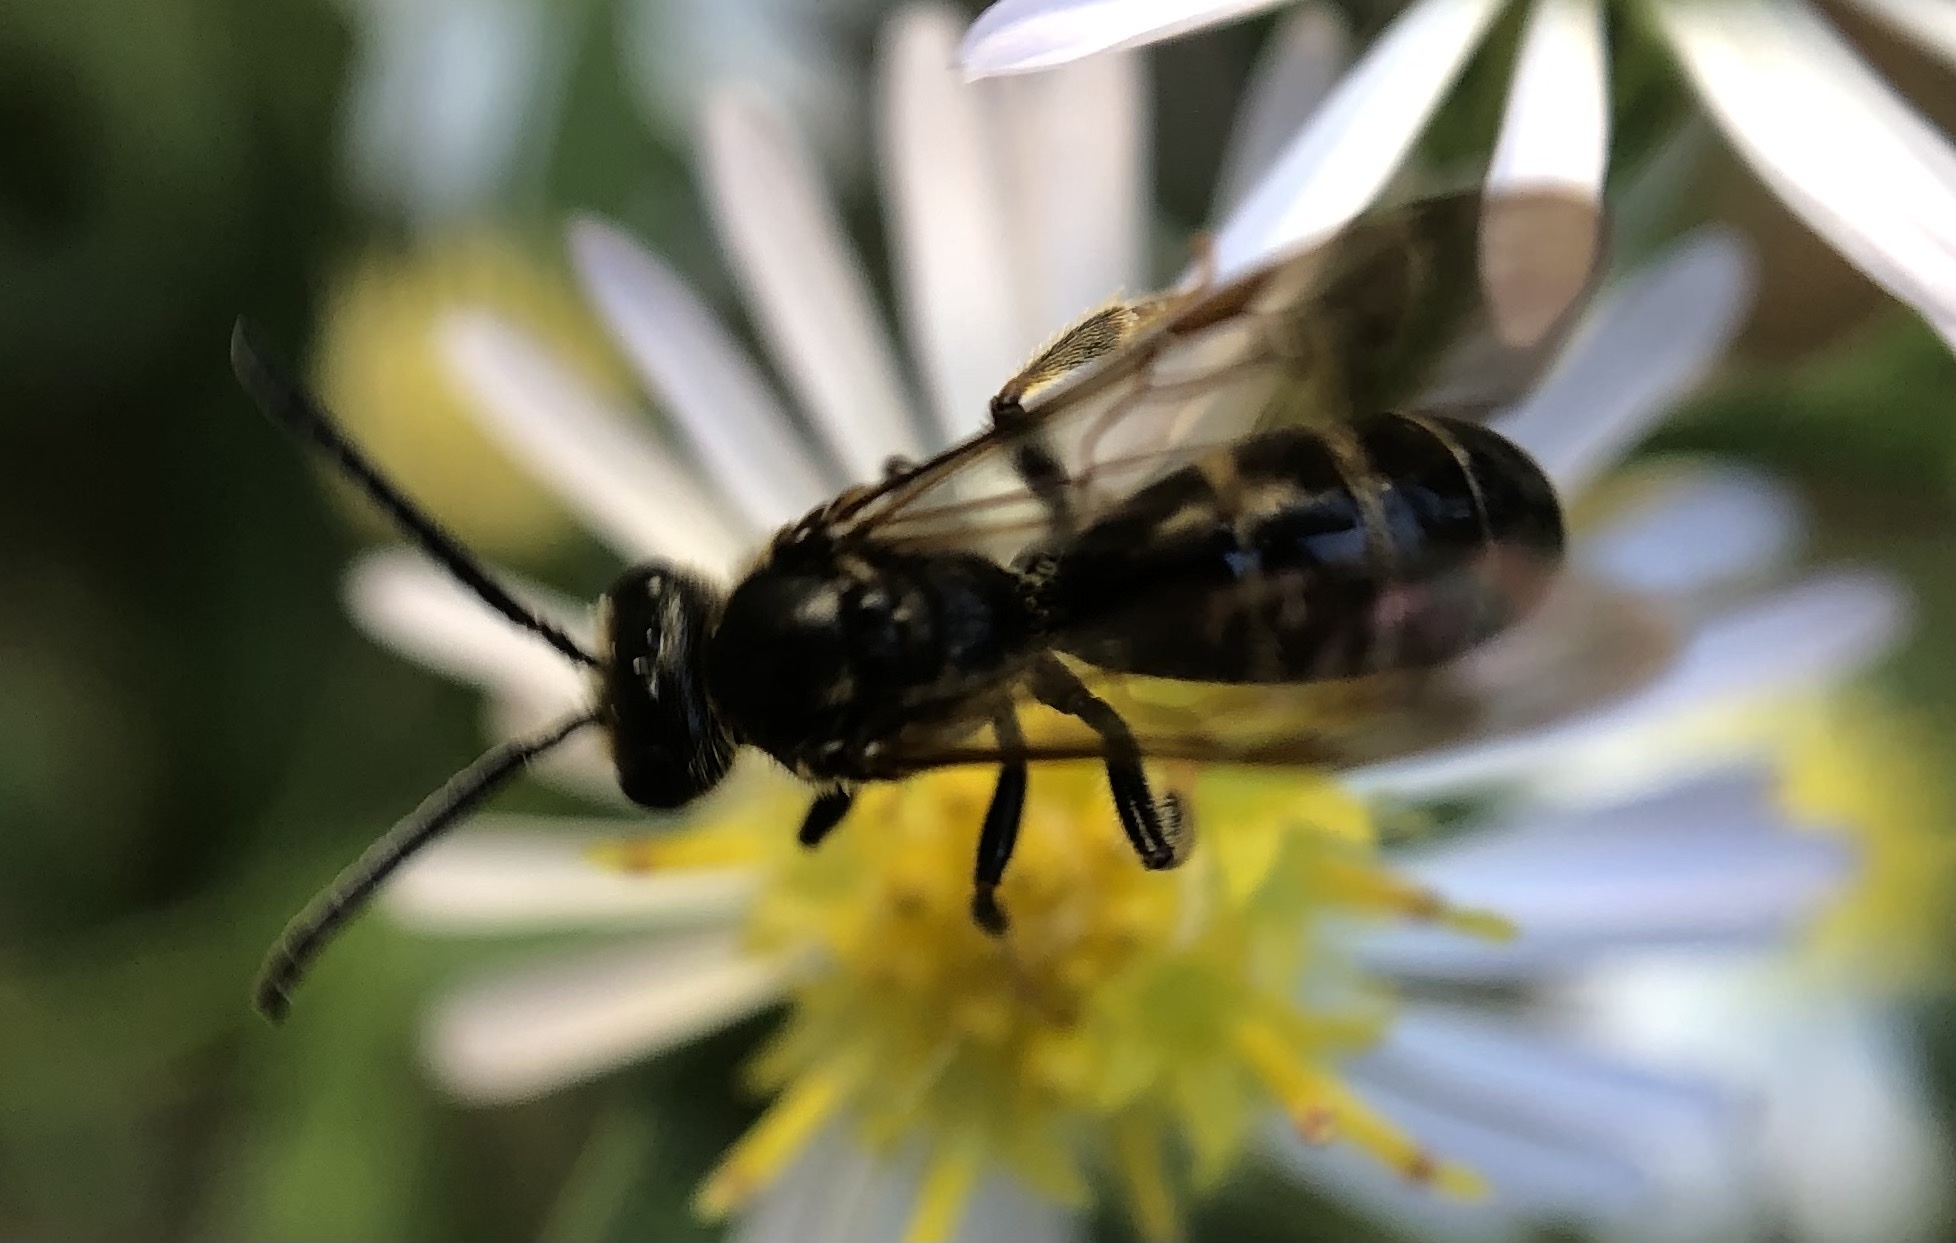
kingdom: Animalia
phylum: Arthropoda
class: Insecta
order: Hymenoptera
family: Halictidae
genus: Lasioglossum
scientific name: Lasioglossum fuscipenne
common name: Brown-winged sweat bee
